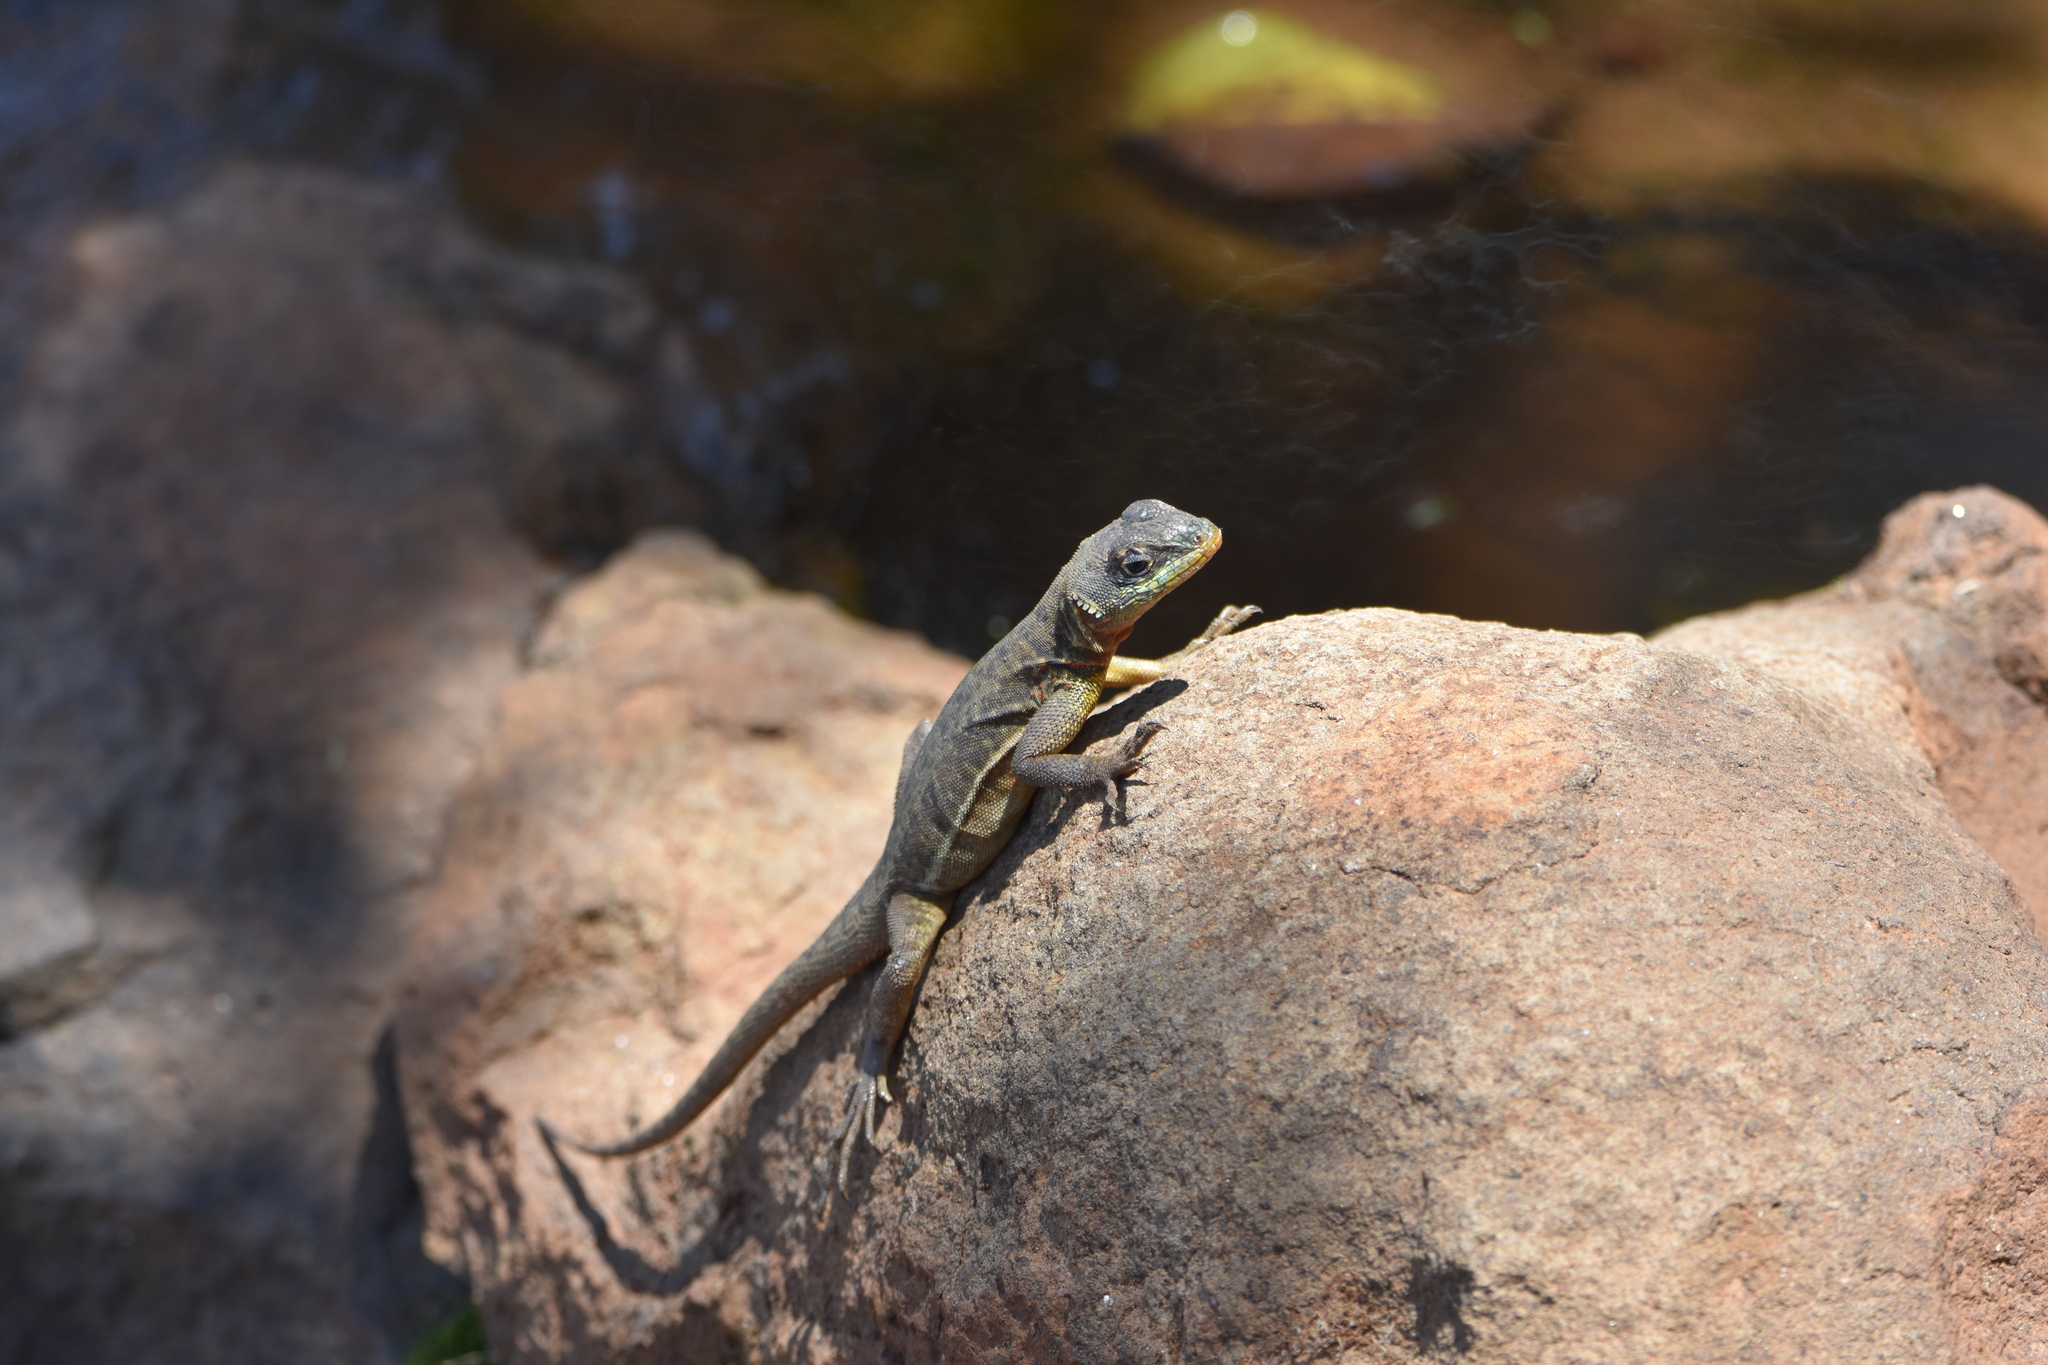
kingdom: Animalia
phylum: Chordata
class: Squamata
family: Tropiduridae
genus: Tropidurus
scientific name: Tropidurus catalanensis
